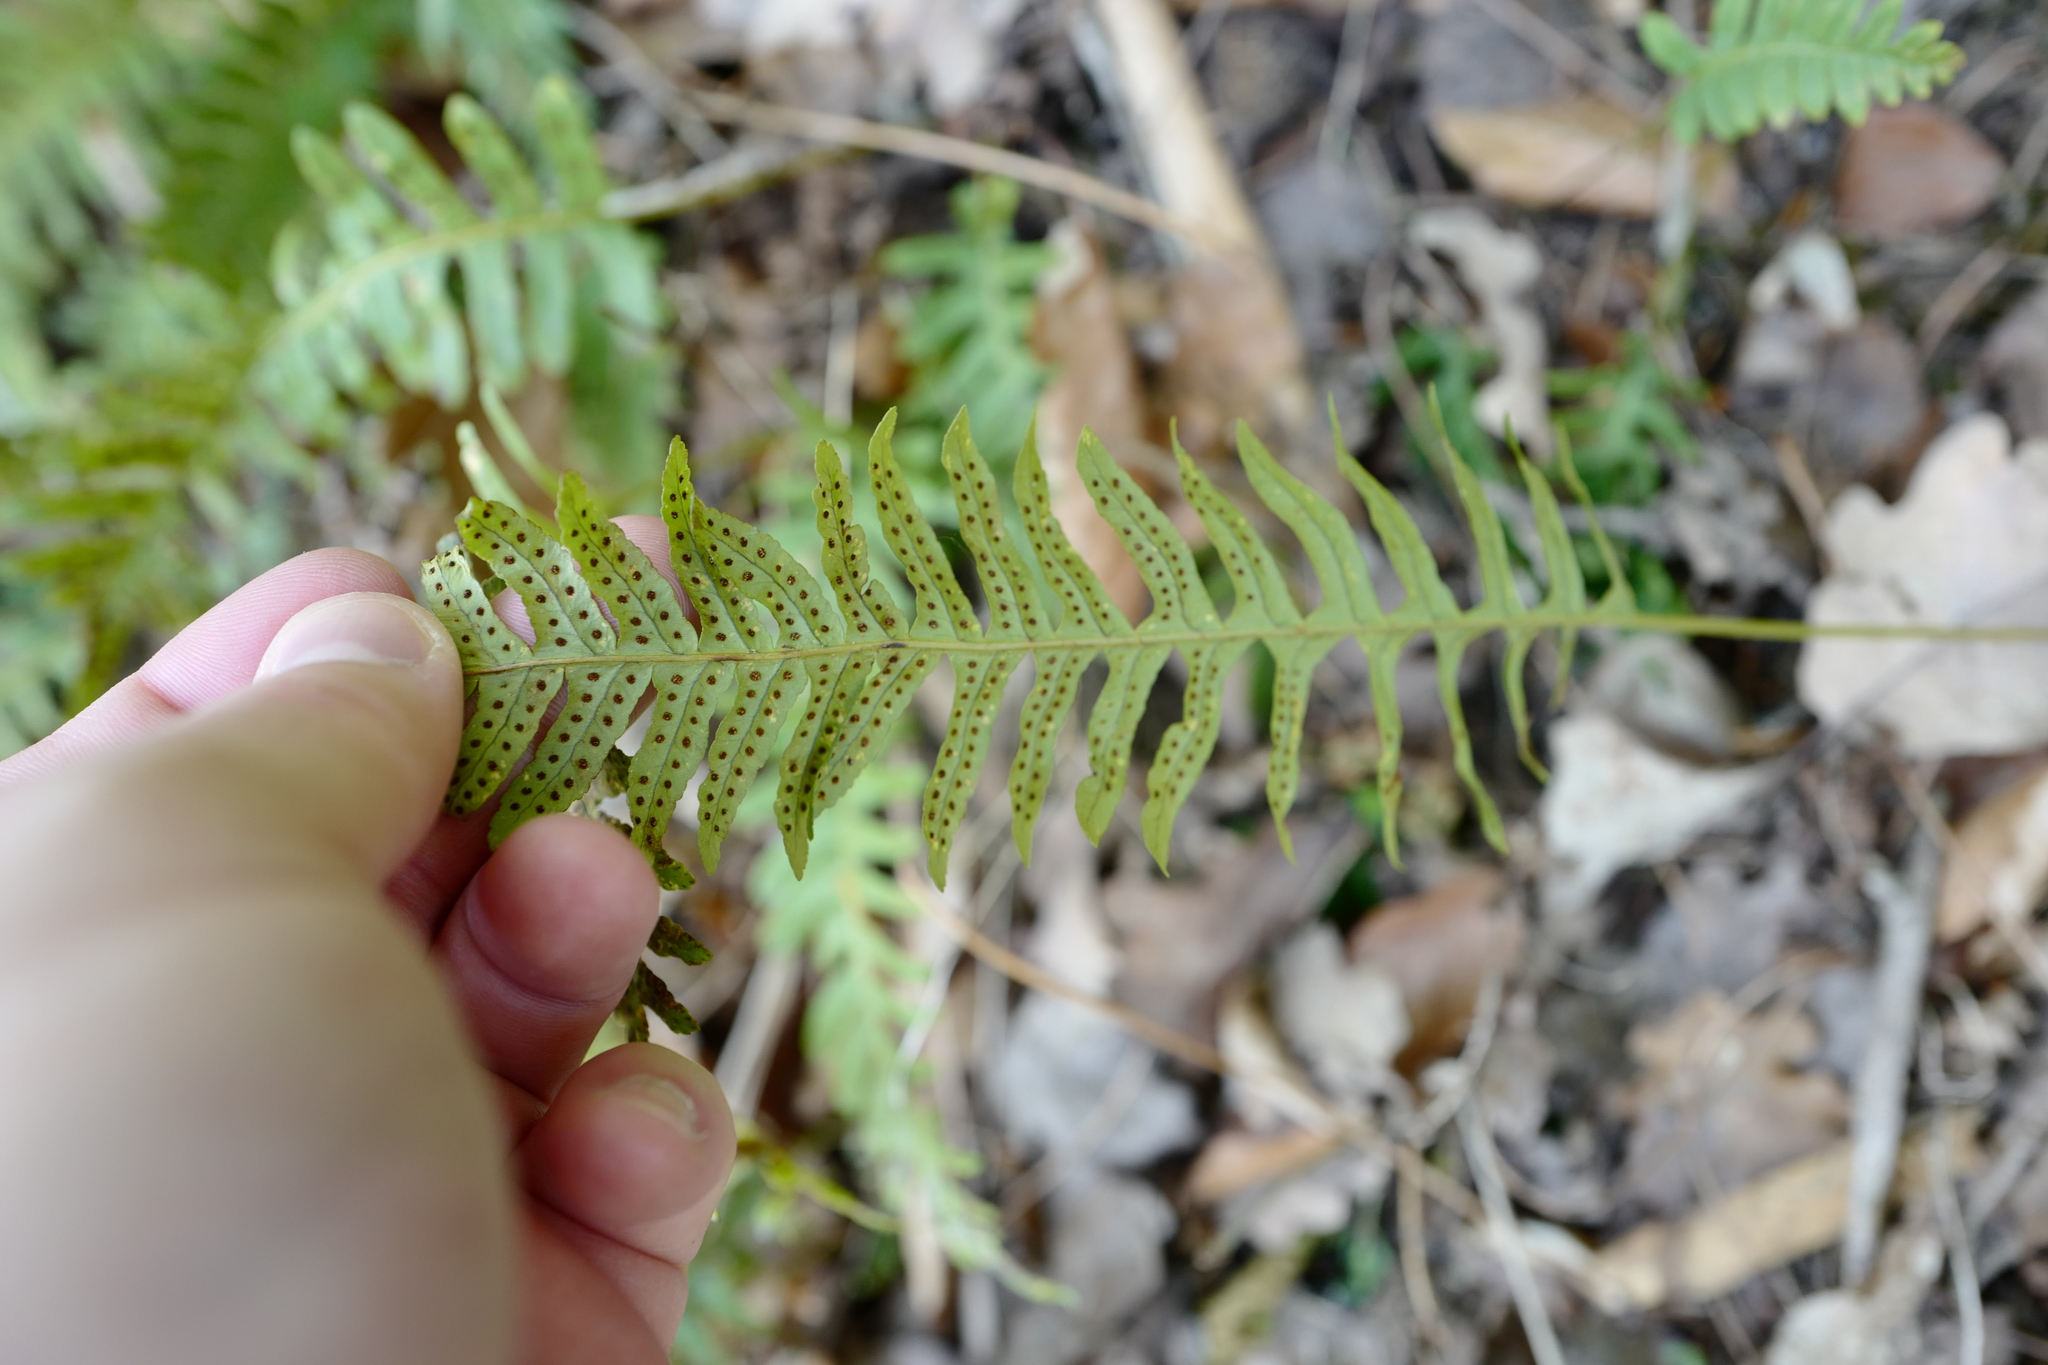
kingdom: Plantae
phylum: Tracheophyta
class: Polypodiopsida
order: Polypodiales
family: Polypodiaceae
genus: Polypodium
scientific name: Polypodium vulgare
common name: Common polypody
